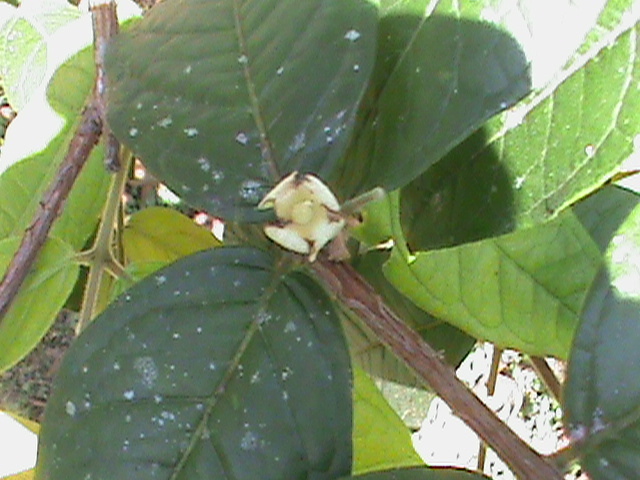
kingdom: Plantae
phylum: Tracheophyta
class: Magnoliopsida
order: Myrtales
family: Myrtaceae
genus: Eugenia
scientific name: Eugenia stipitata
